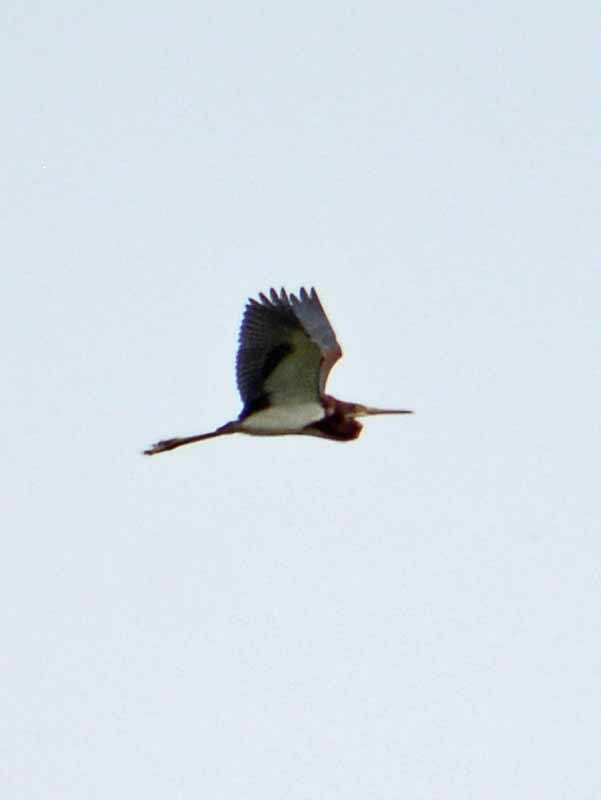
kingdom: Animalia
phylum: Chordata
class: Aves
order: Pelecaniformes
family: Ardeidae
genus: Egretta
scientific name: Egretta tricolor
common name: Tricolored heron
